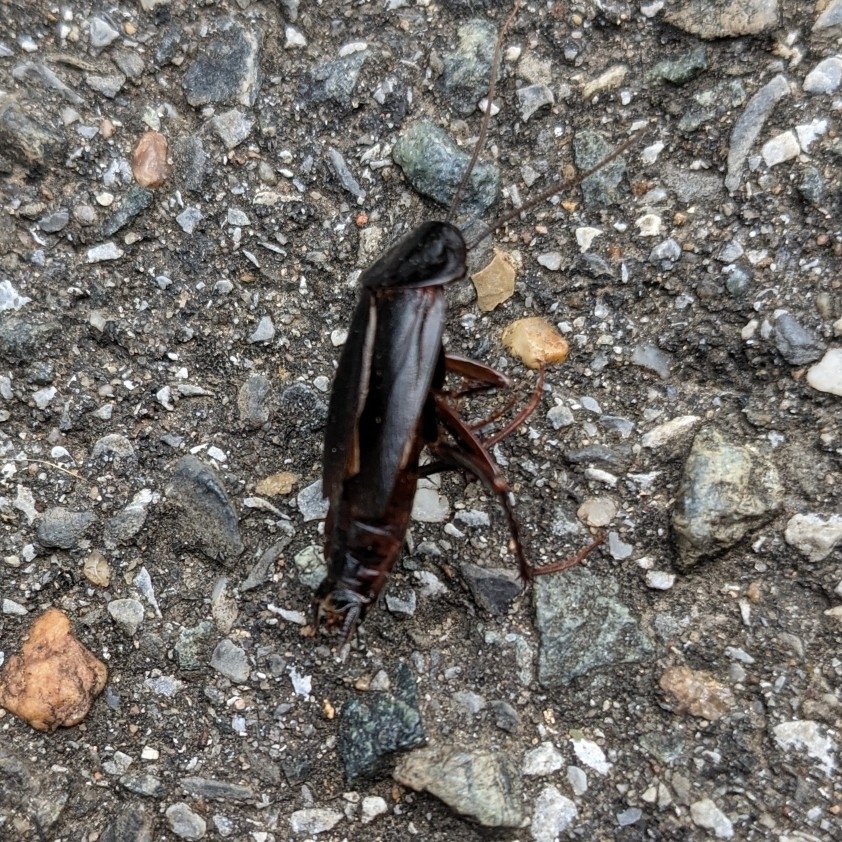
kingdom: Animalia
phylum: Arthropoda
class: Insecta
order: Blattodea
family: Blattidae
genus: Blatta
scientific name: Blatta orientalis
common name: Oriental cockroach
